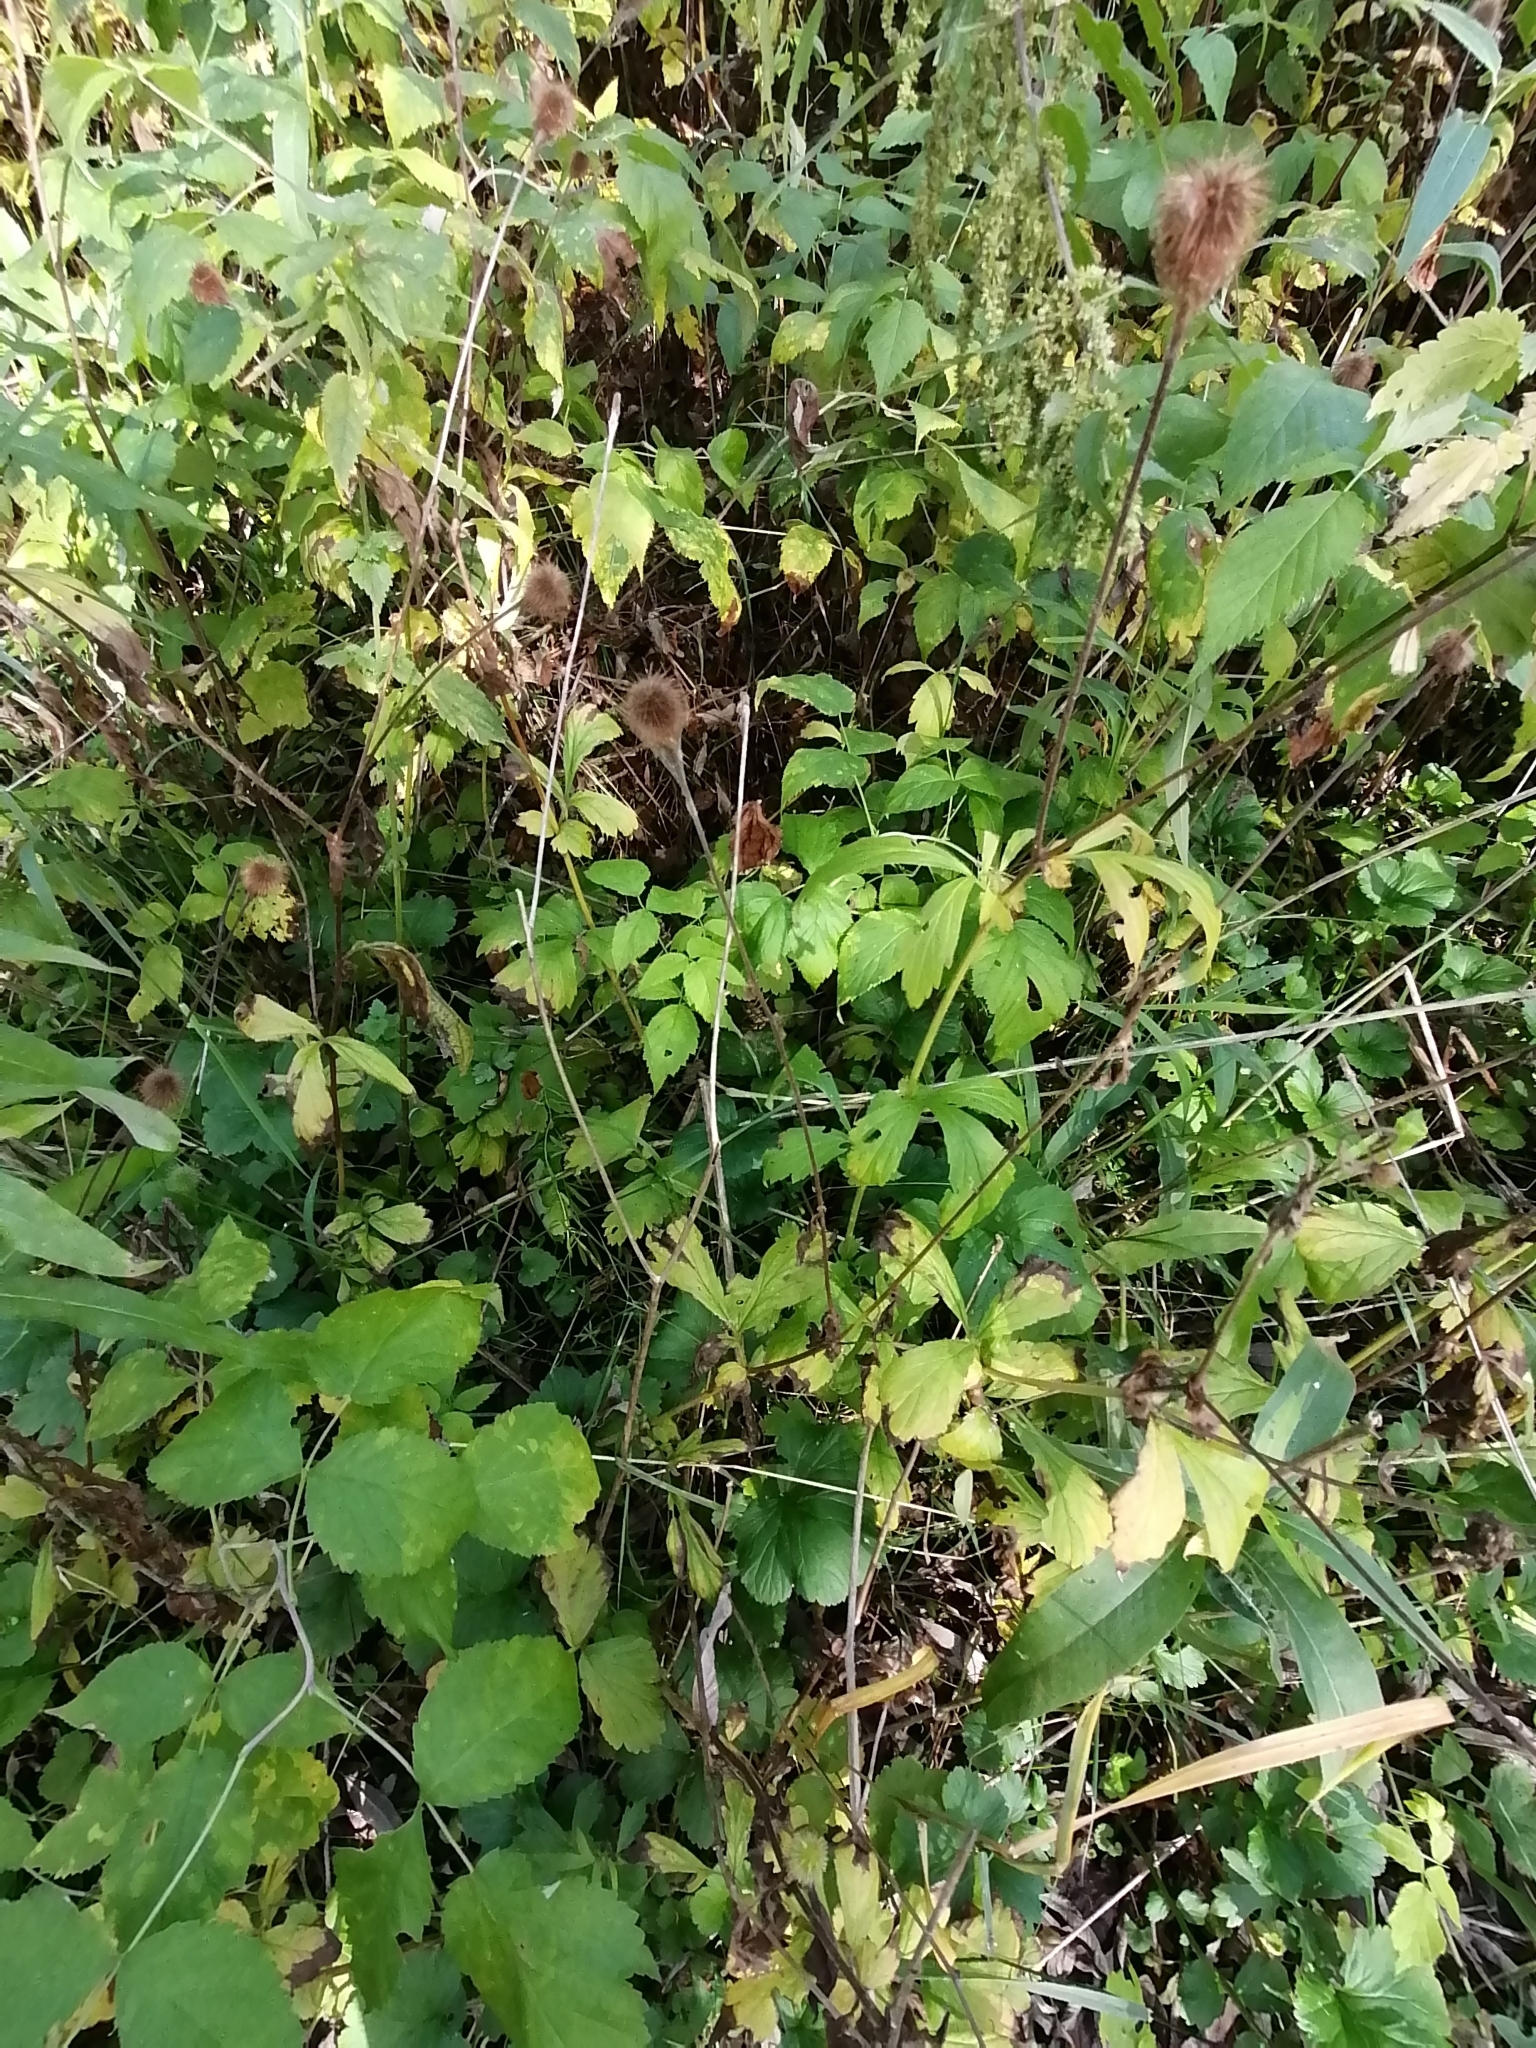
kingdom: Plantae
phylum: Tracheophyta
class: Magnoliopsida
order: Rosales
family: Rosaceae
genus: Geum
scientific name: Geum aleppicum
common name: Yellow avens
